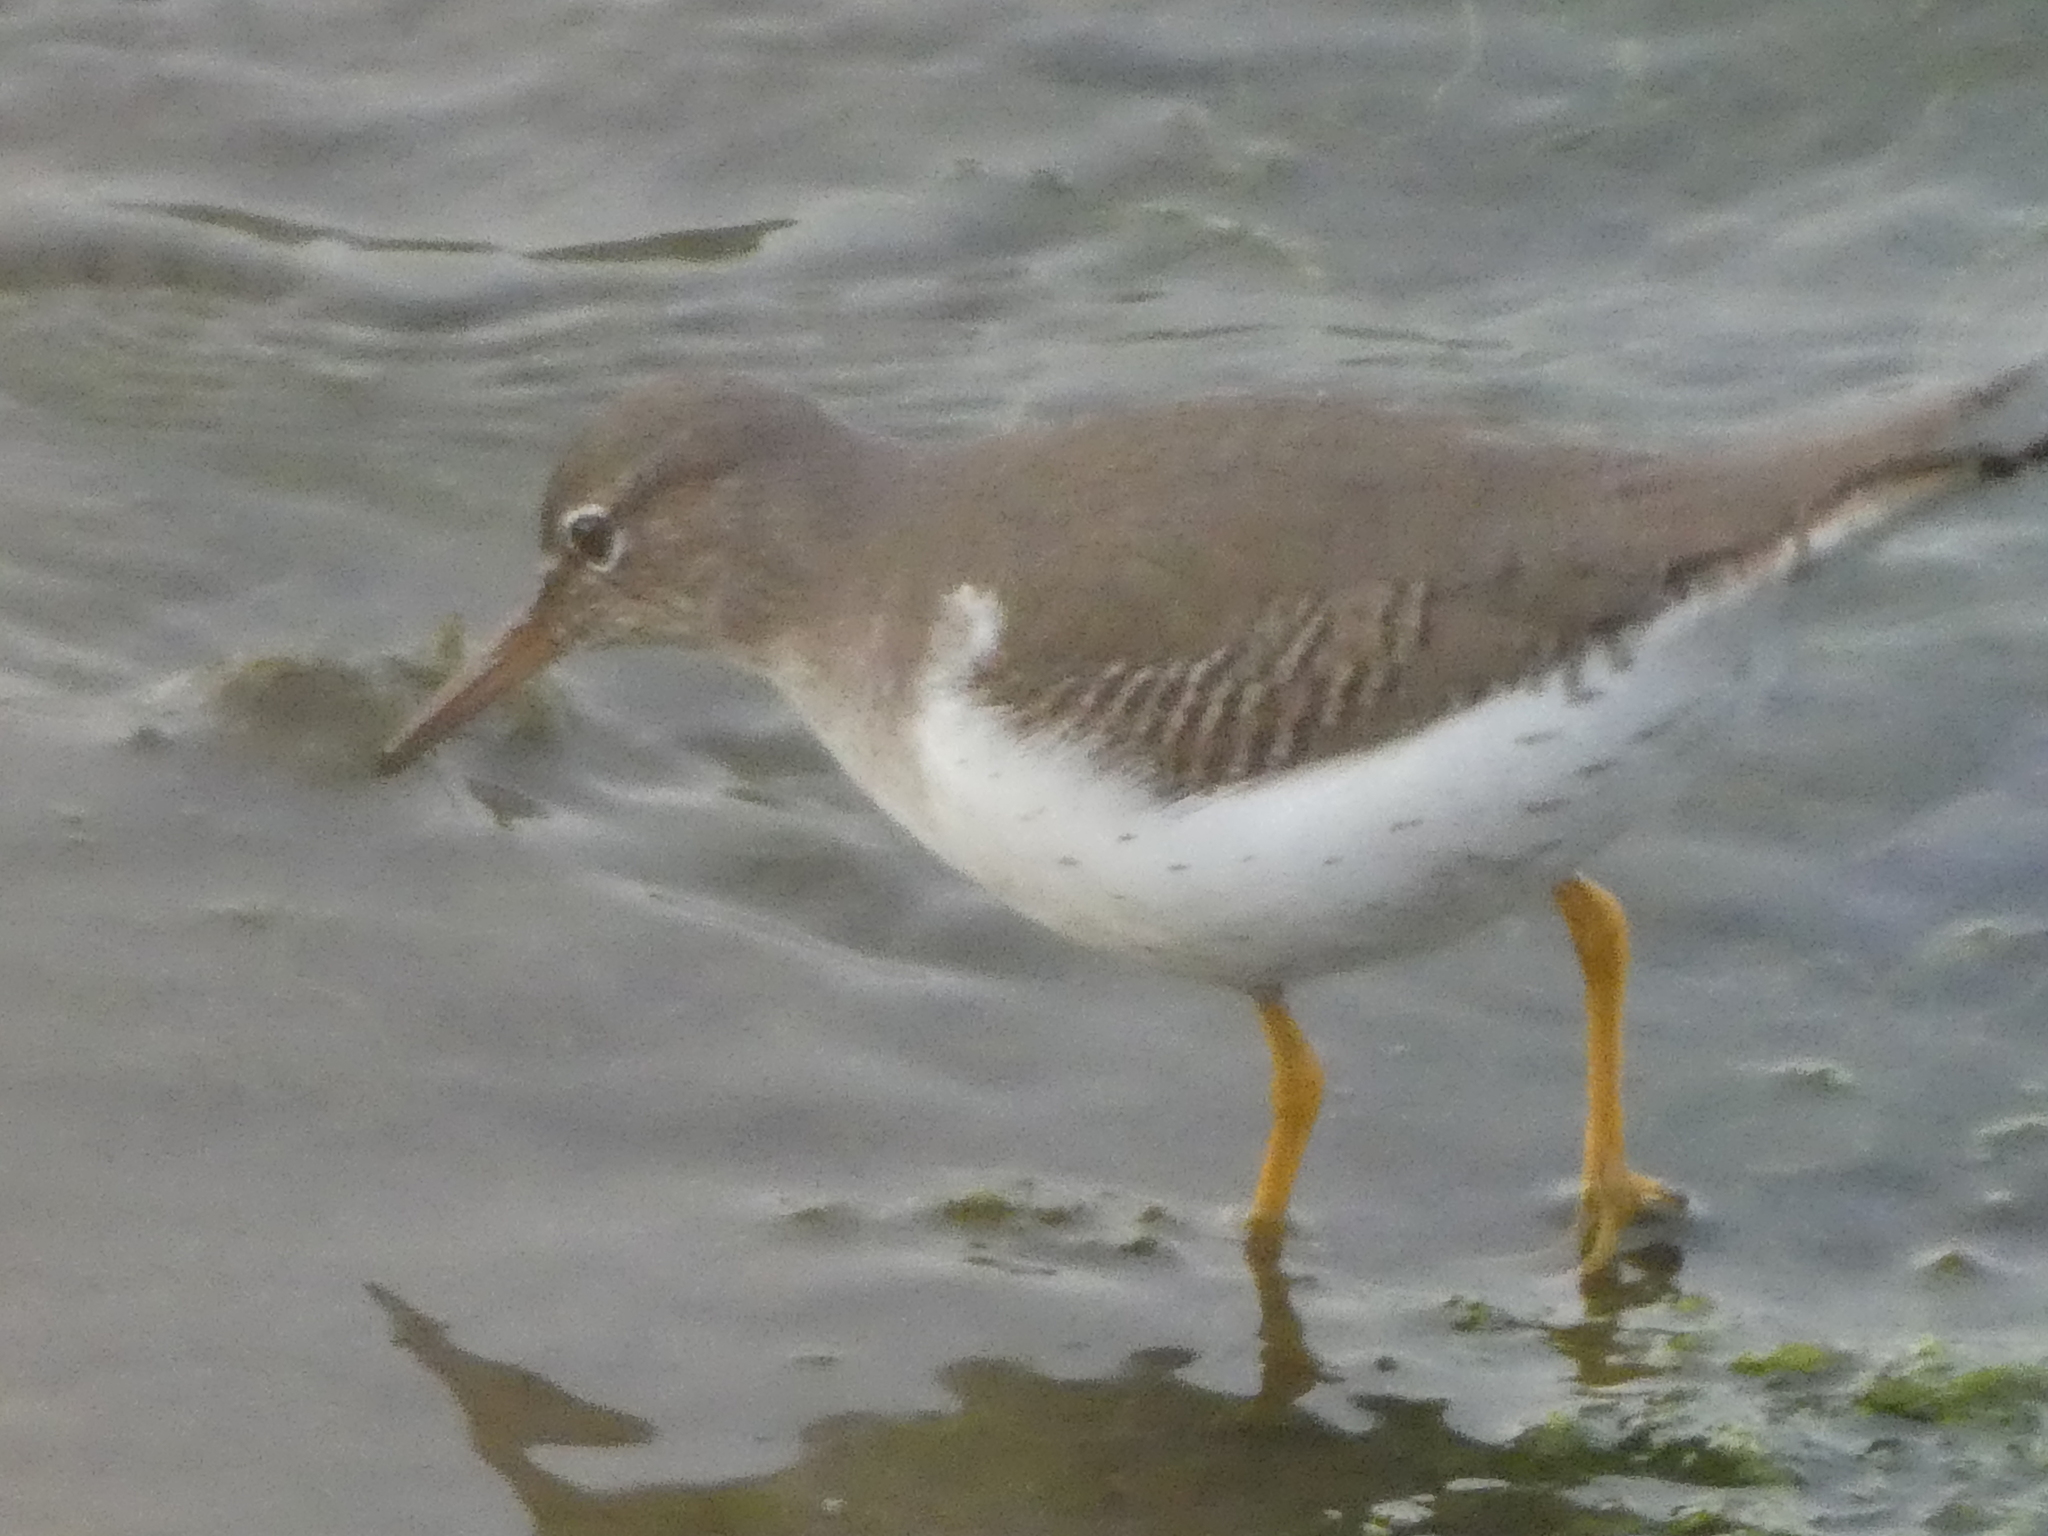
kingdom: Animalia
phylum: Chordata
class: Aves
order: Charadriiformes
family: Scolopacidae
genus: Actitis
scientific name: Actitis macularius
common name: Spotted sandpiper
